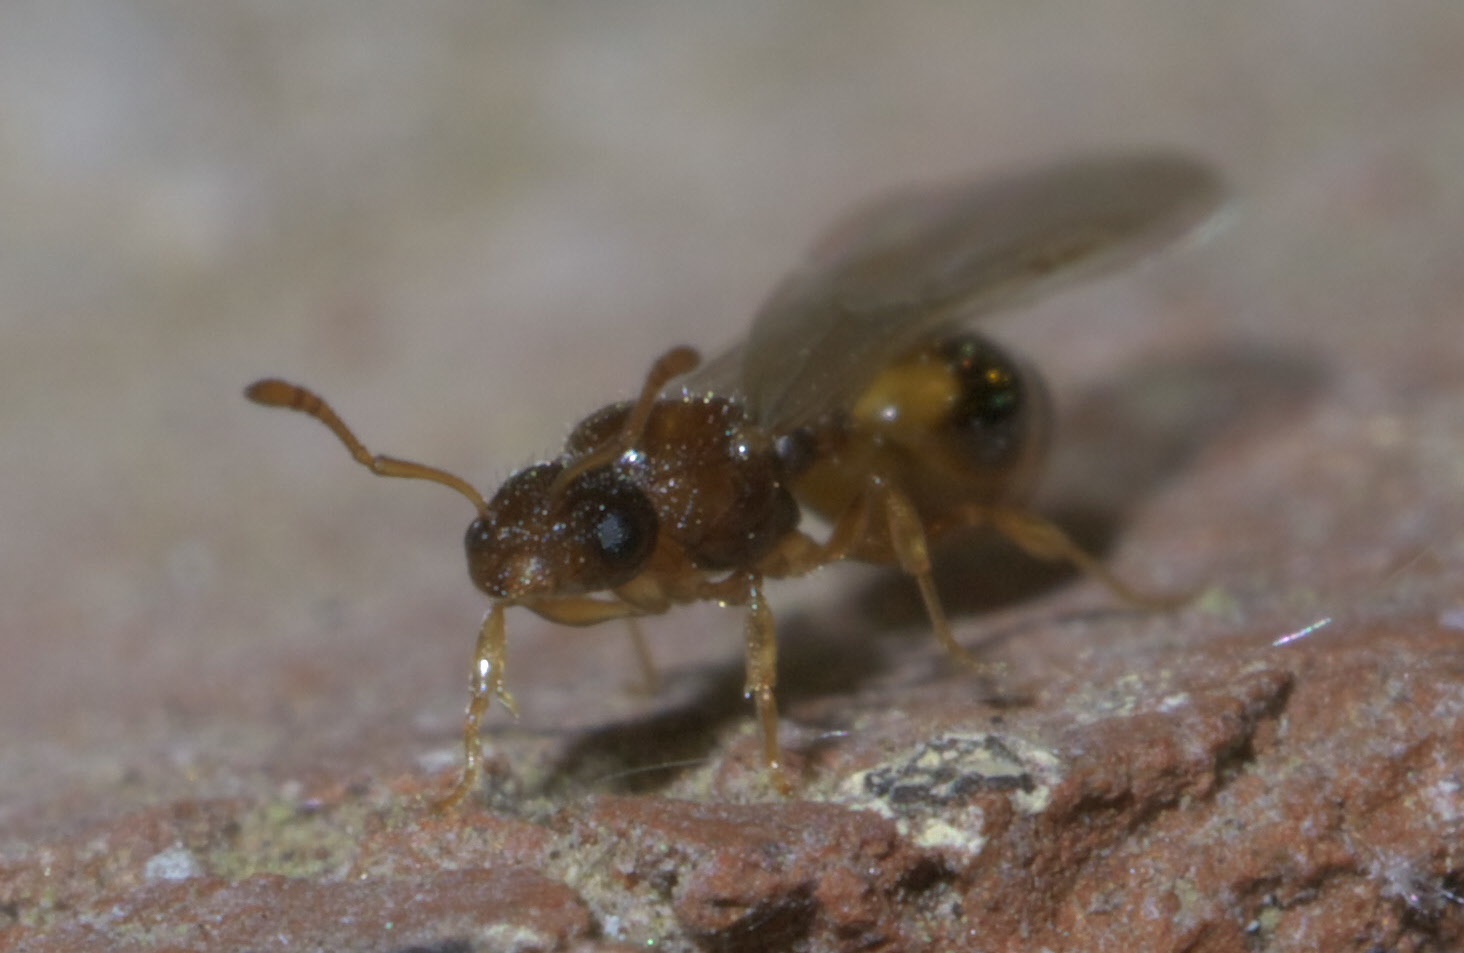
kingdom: Animalia
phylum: Arthropoda
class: Insecta
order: Hymenoptera
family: Formicidae
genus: Temnothorax
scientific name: Temnothorax curvispinosus
